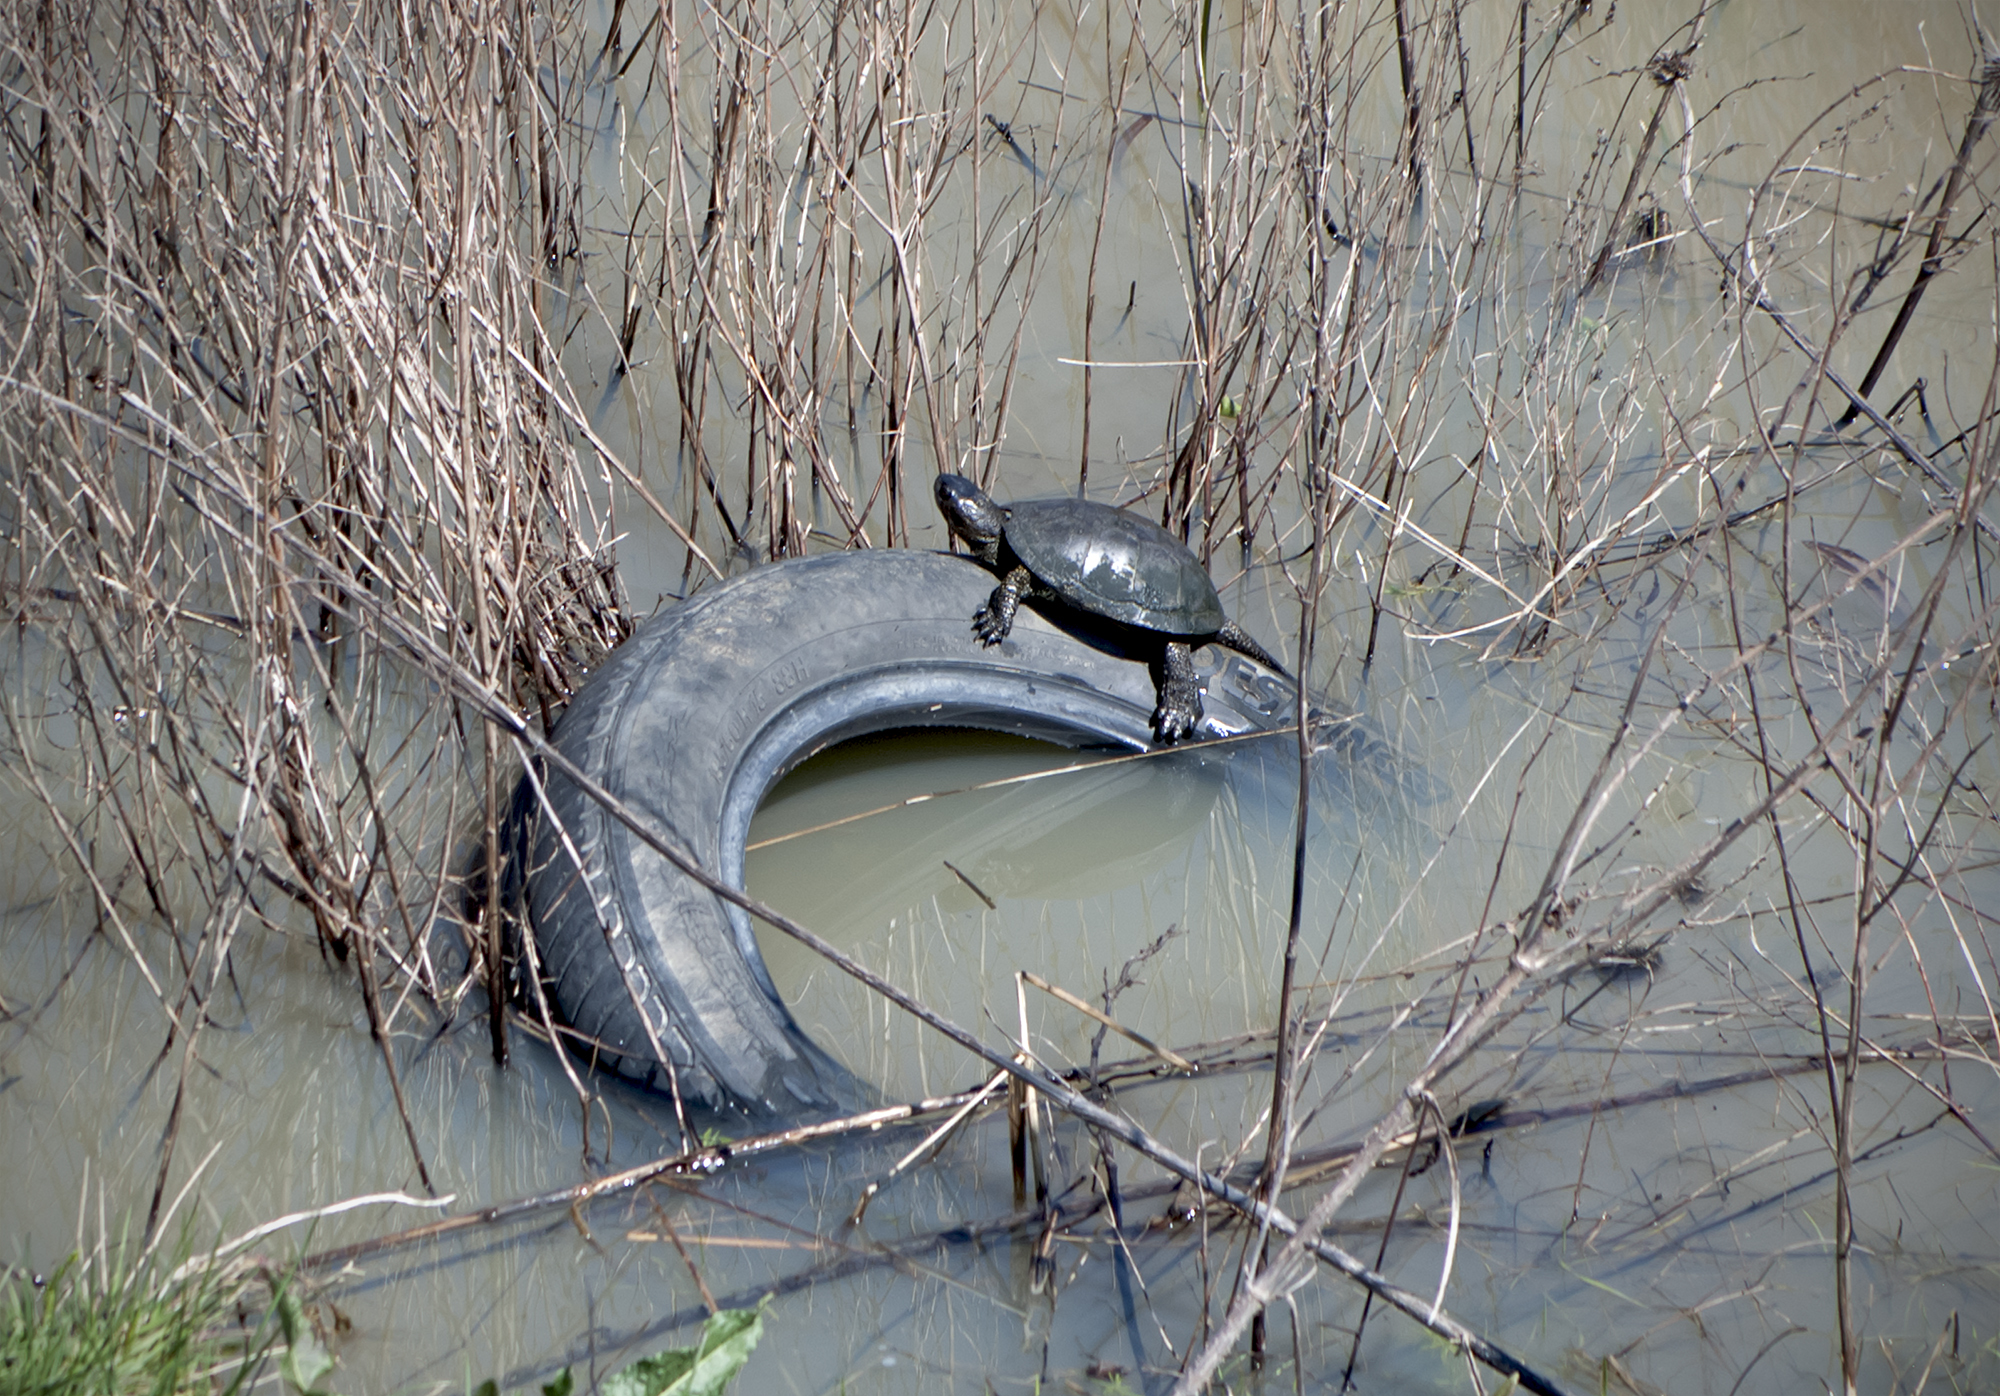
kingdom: Animalia
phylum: Chordata
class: Testudines
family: Emydidae
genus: Emys
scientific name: Emys orbicularis
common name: European pond turtle
